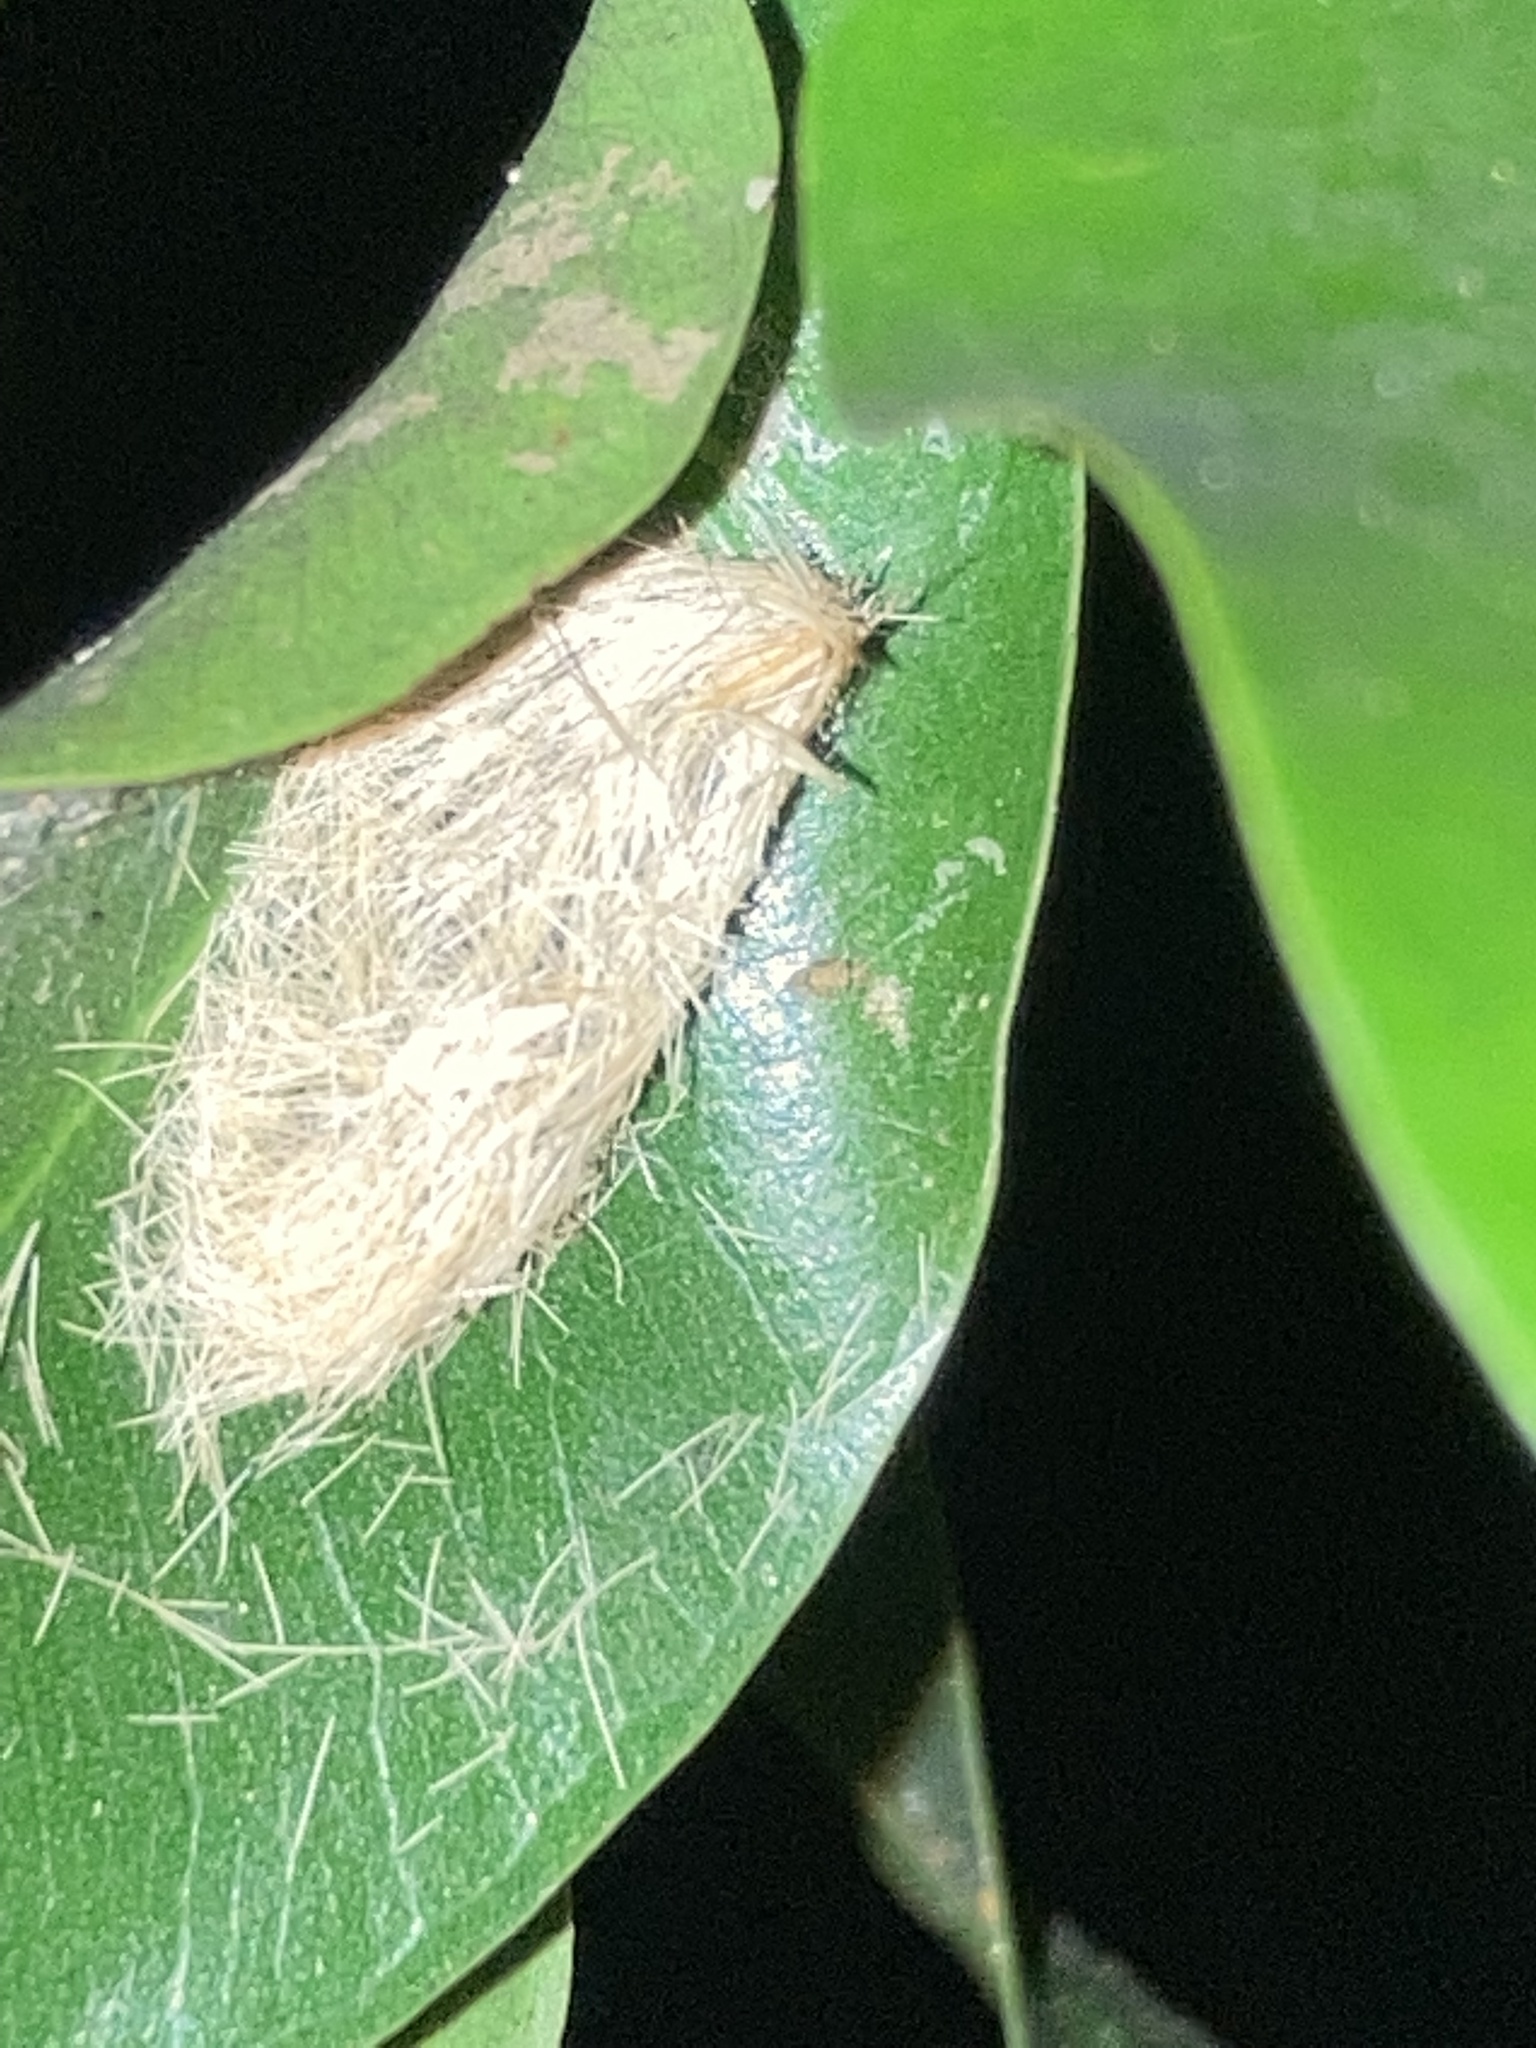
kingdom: Animalia
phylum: Arthropoda
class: Insecta
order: Lepidoptera
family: Erebidae
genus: Lymire
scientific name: Lymire edwardsii
